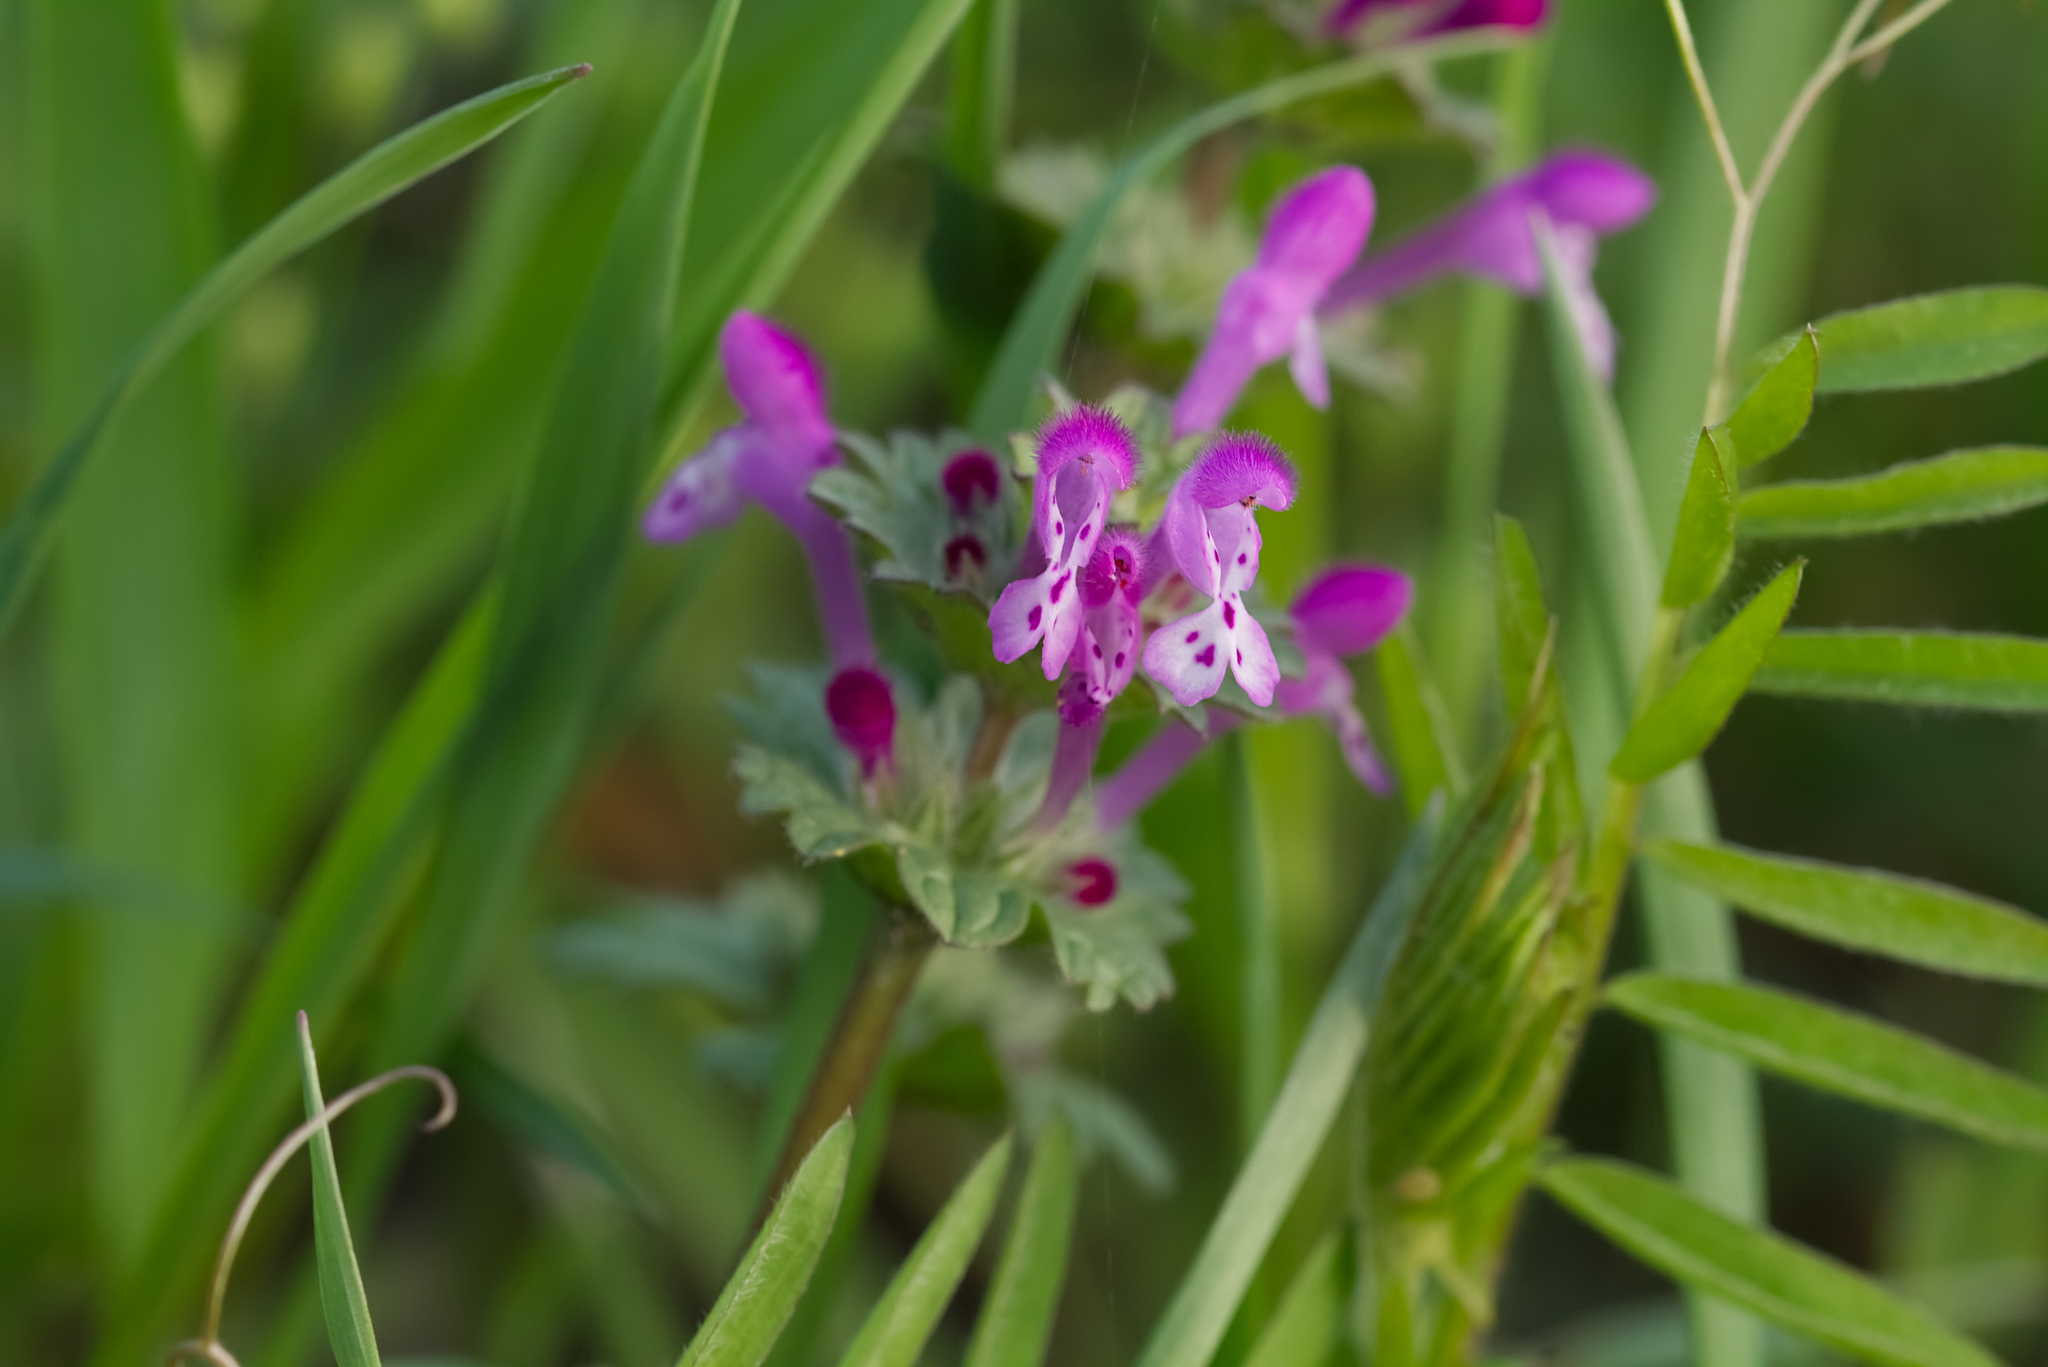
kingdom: Plantae
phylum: Tracheophyta
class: Magnoliopsida
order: Lamiales
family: Lamiaceae
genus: Lamium
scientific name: Lamium amplexicaule
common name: Henbit dead-nettle
